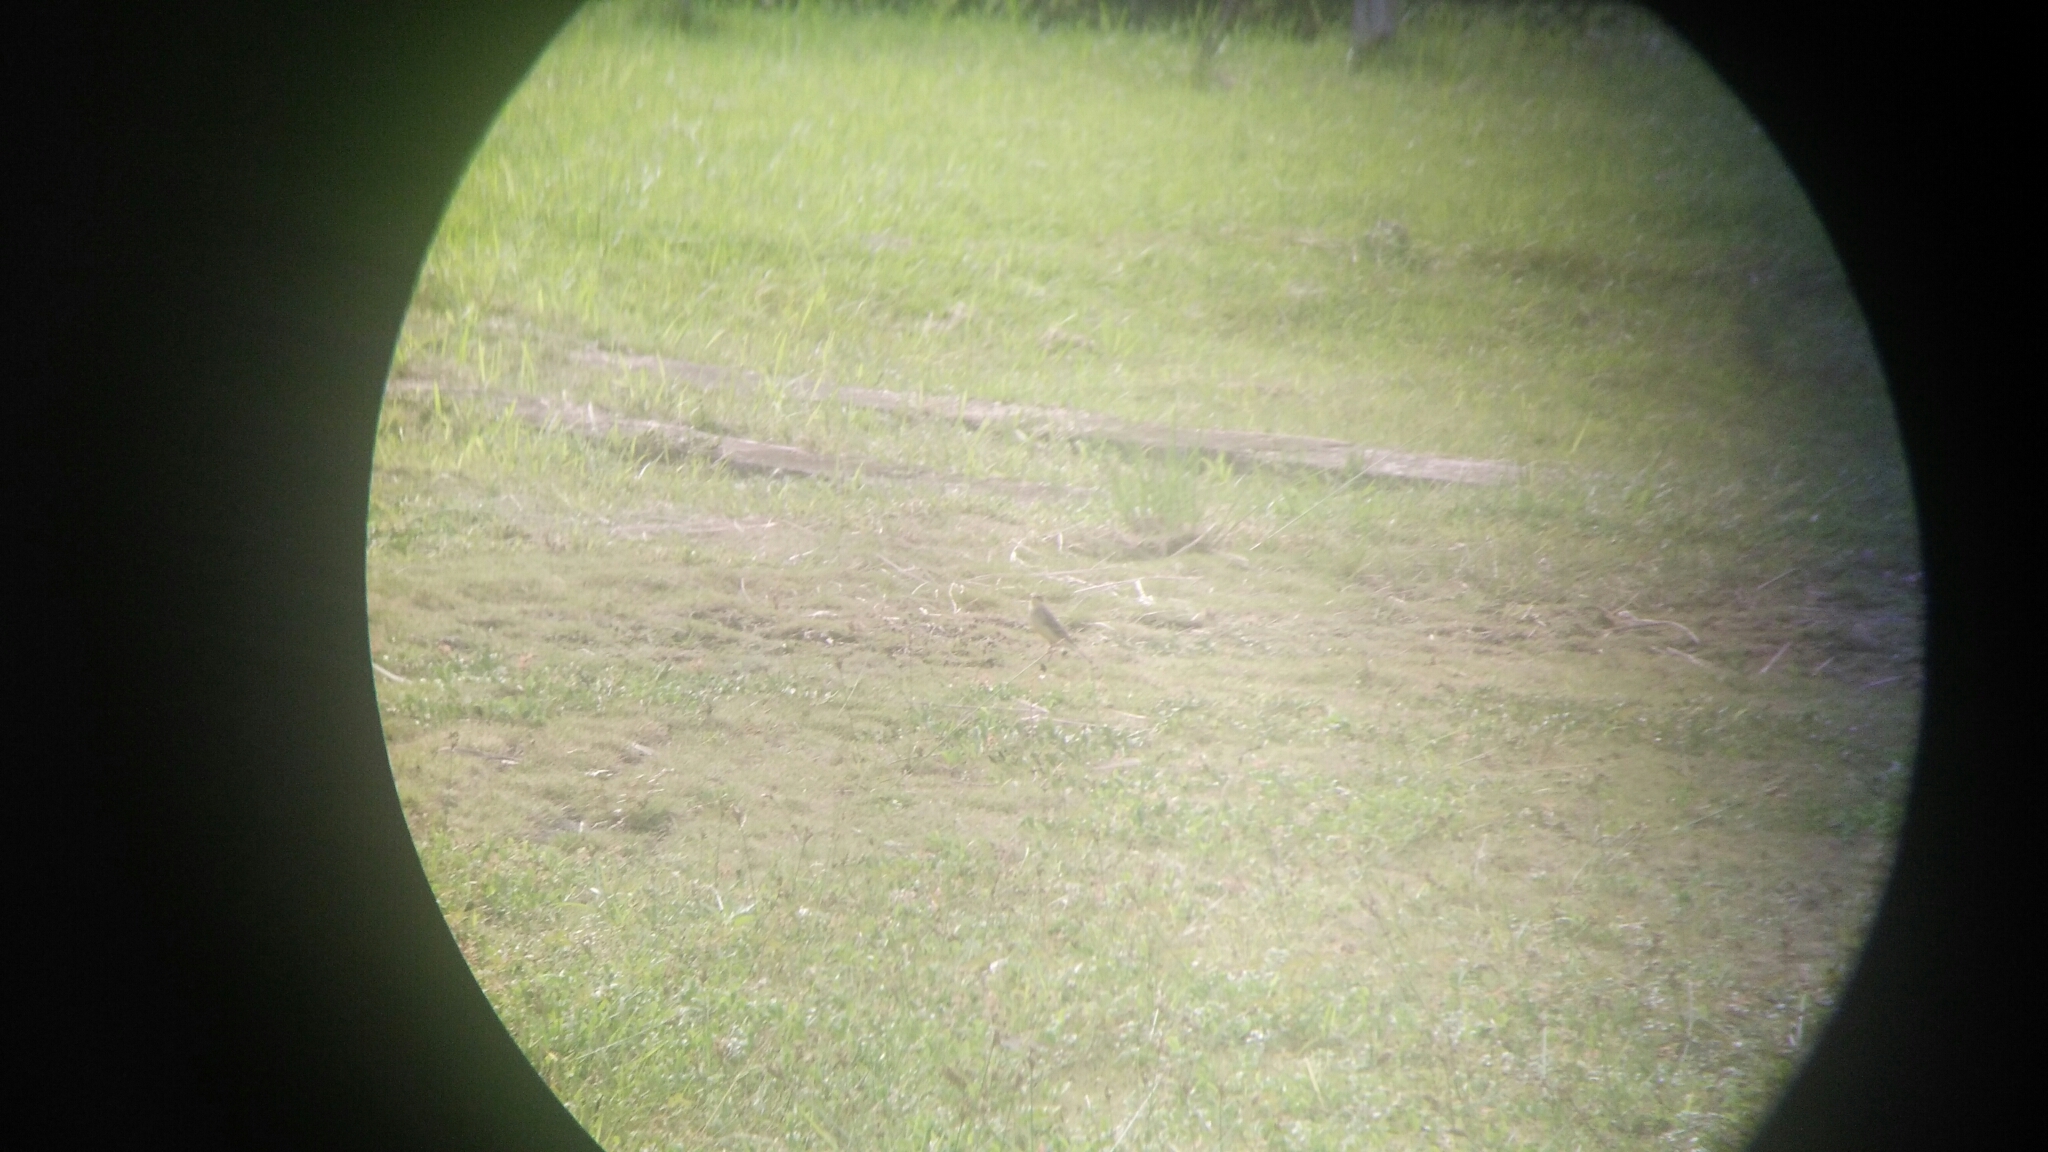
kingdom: Animalia
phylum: Chordata
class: Aves
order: Passeriformes
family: Motacillidae
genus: Motacilla
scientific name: Motacilla tschutschensis
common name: Eastern yellow wagtail
